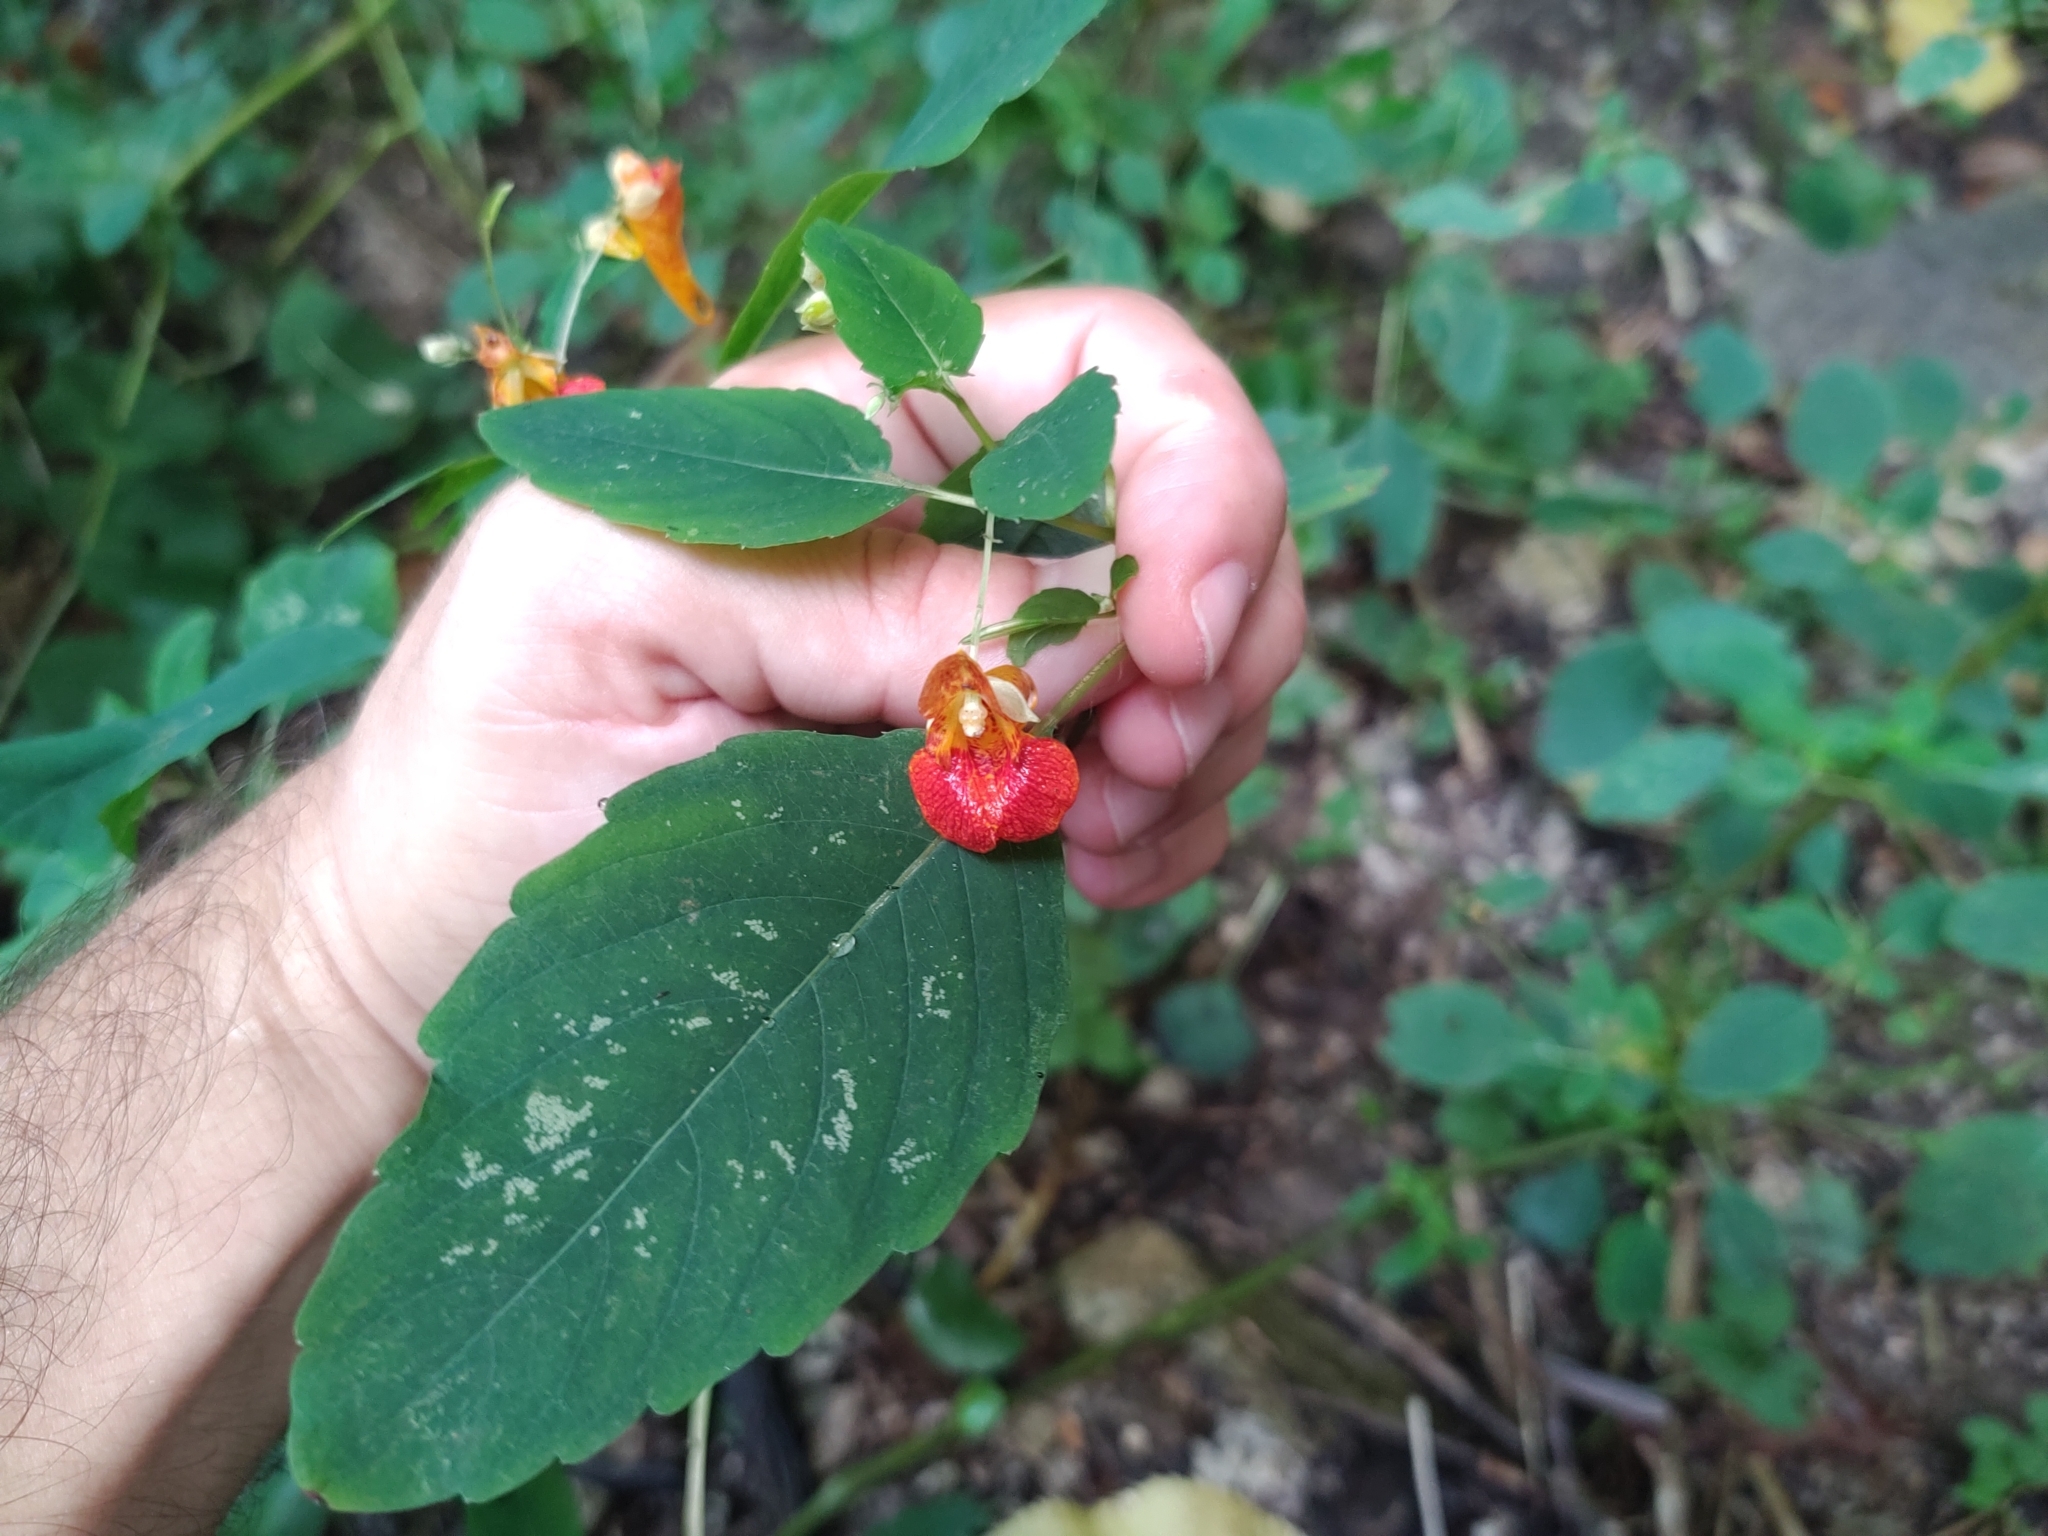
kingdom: Plantae
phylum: Tracheophyta
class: Magnoliopsida
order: Ericales
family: Balsaminaceae
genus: Impatiens
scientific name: Impatiens capensis
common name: Orange balsam
